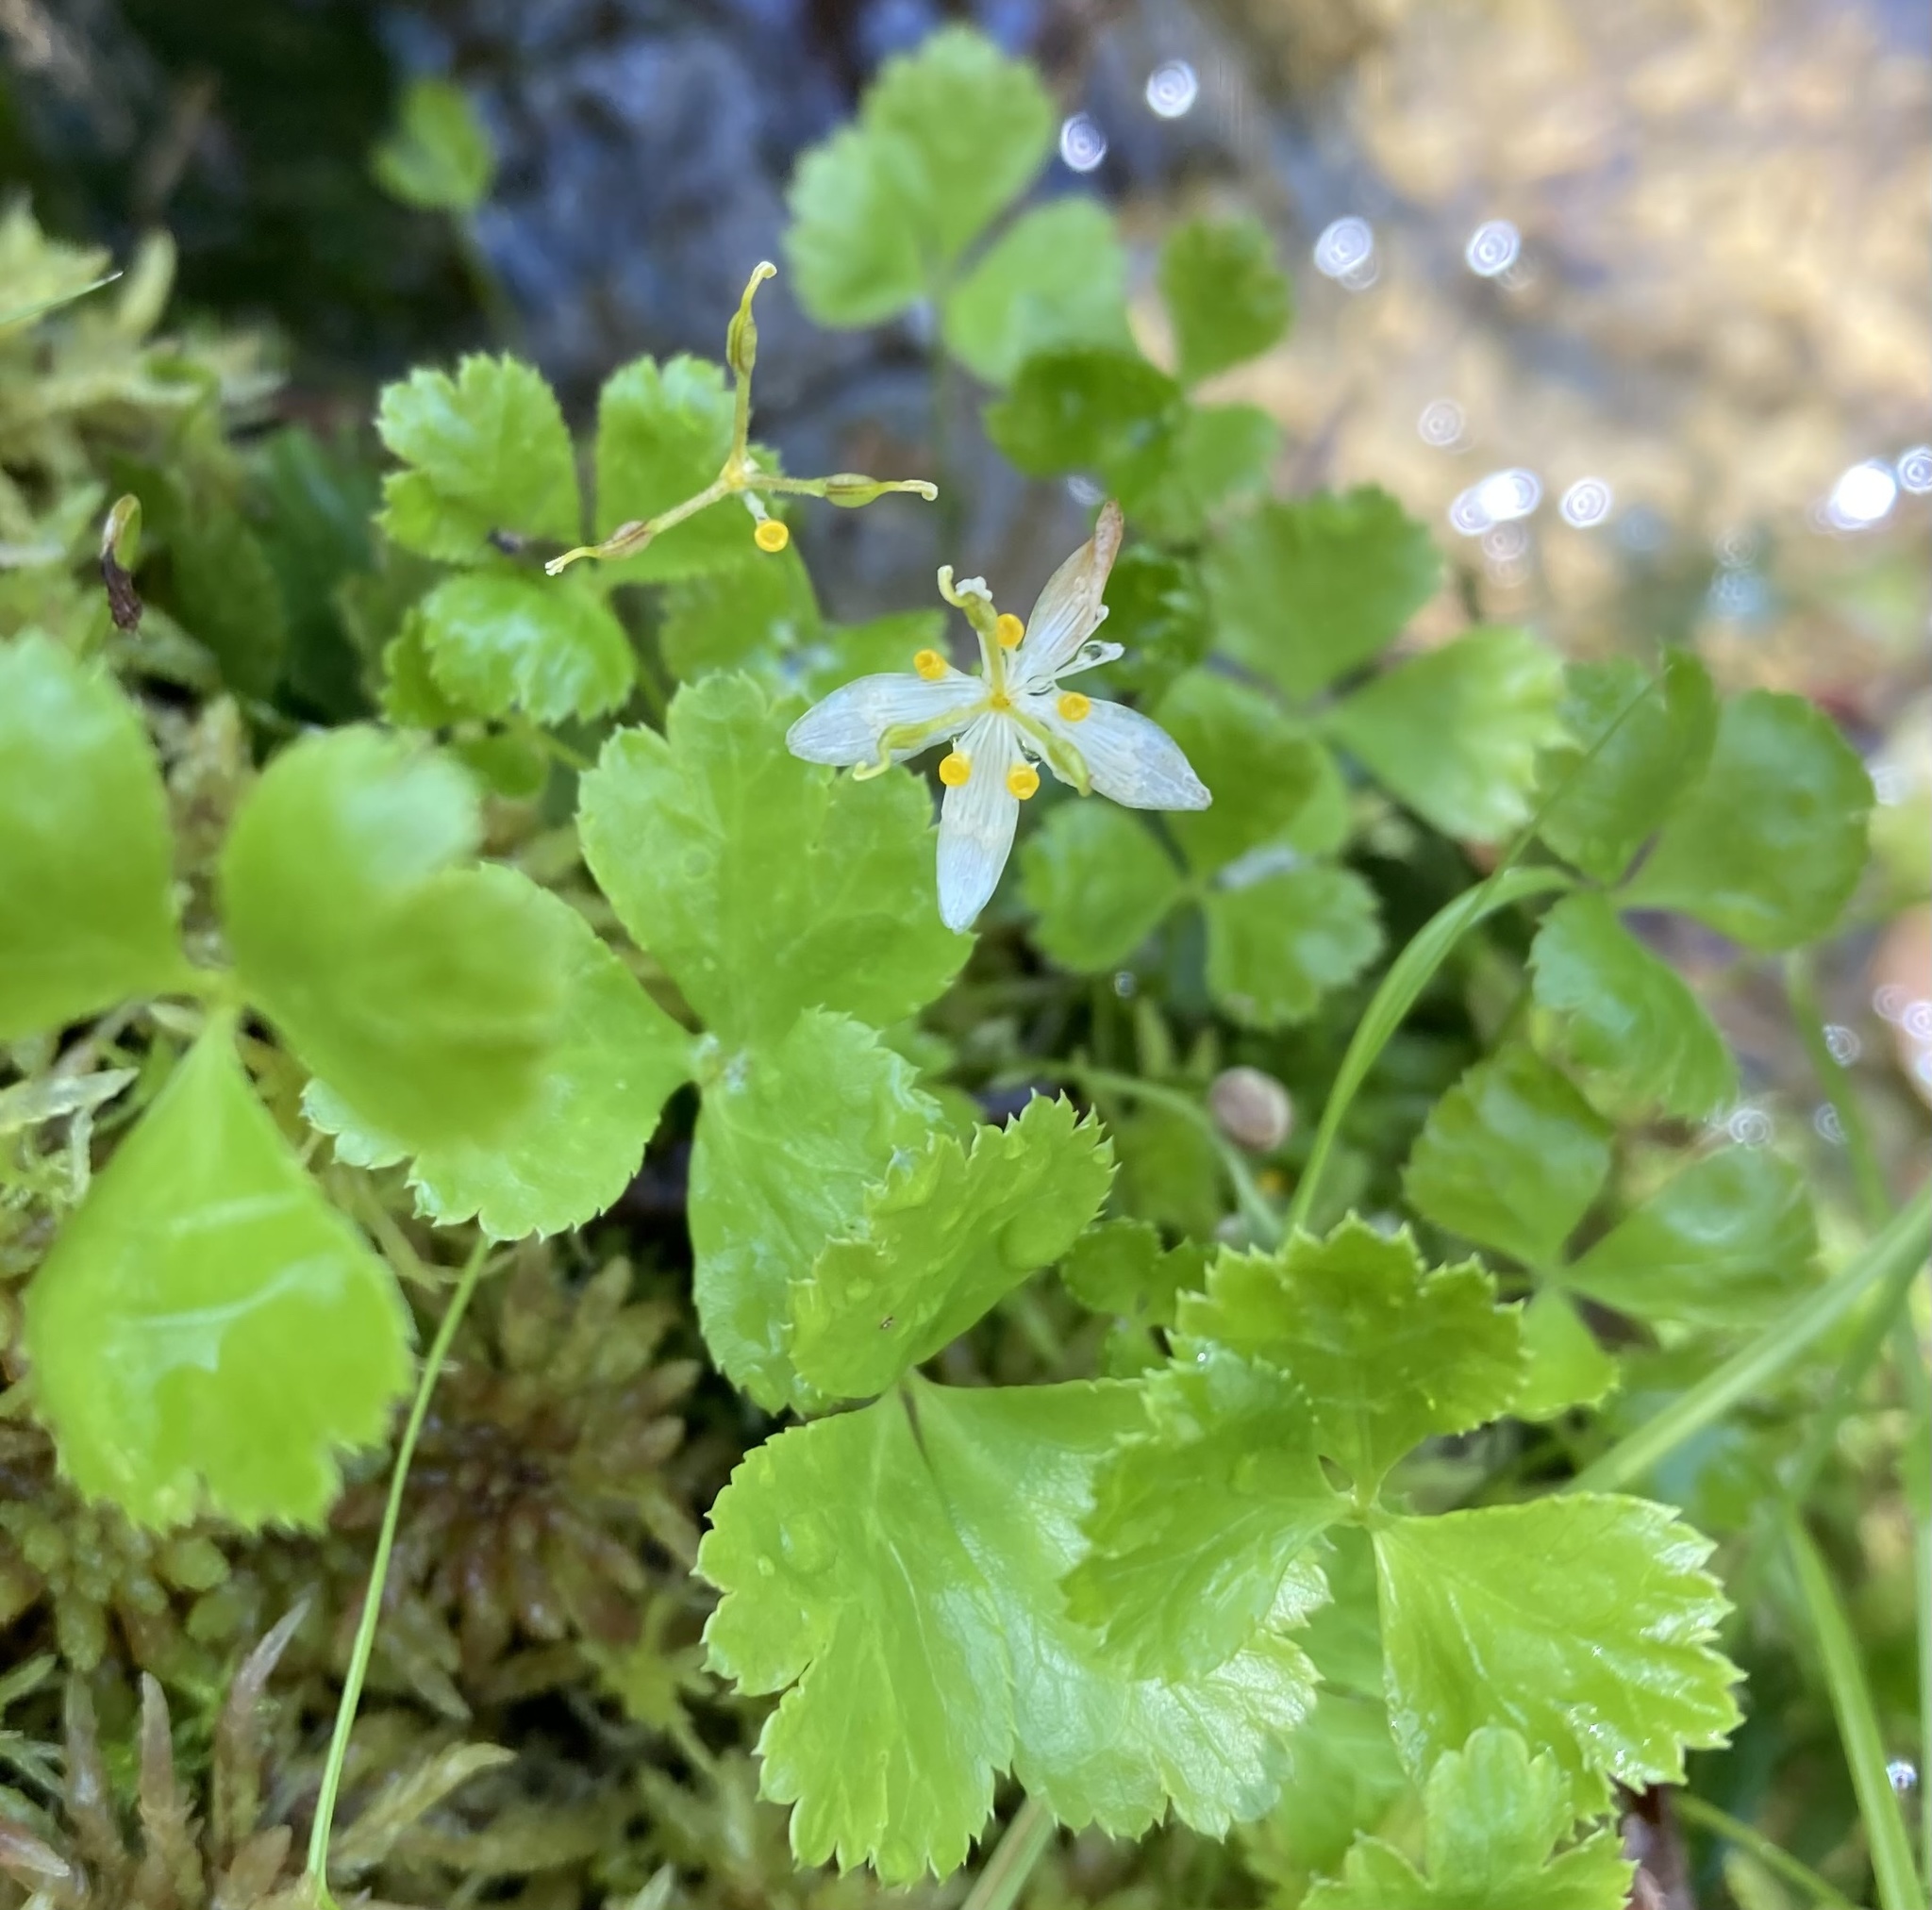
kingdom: Plantae
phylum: Tracheophyta
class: Magnoliopsida
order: Ranunculales
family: Ranunculaceae
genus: Coptis
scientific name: Coptis trifolia
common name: Canker-root
